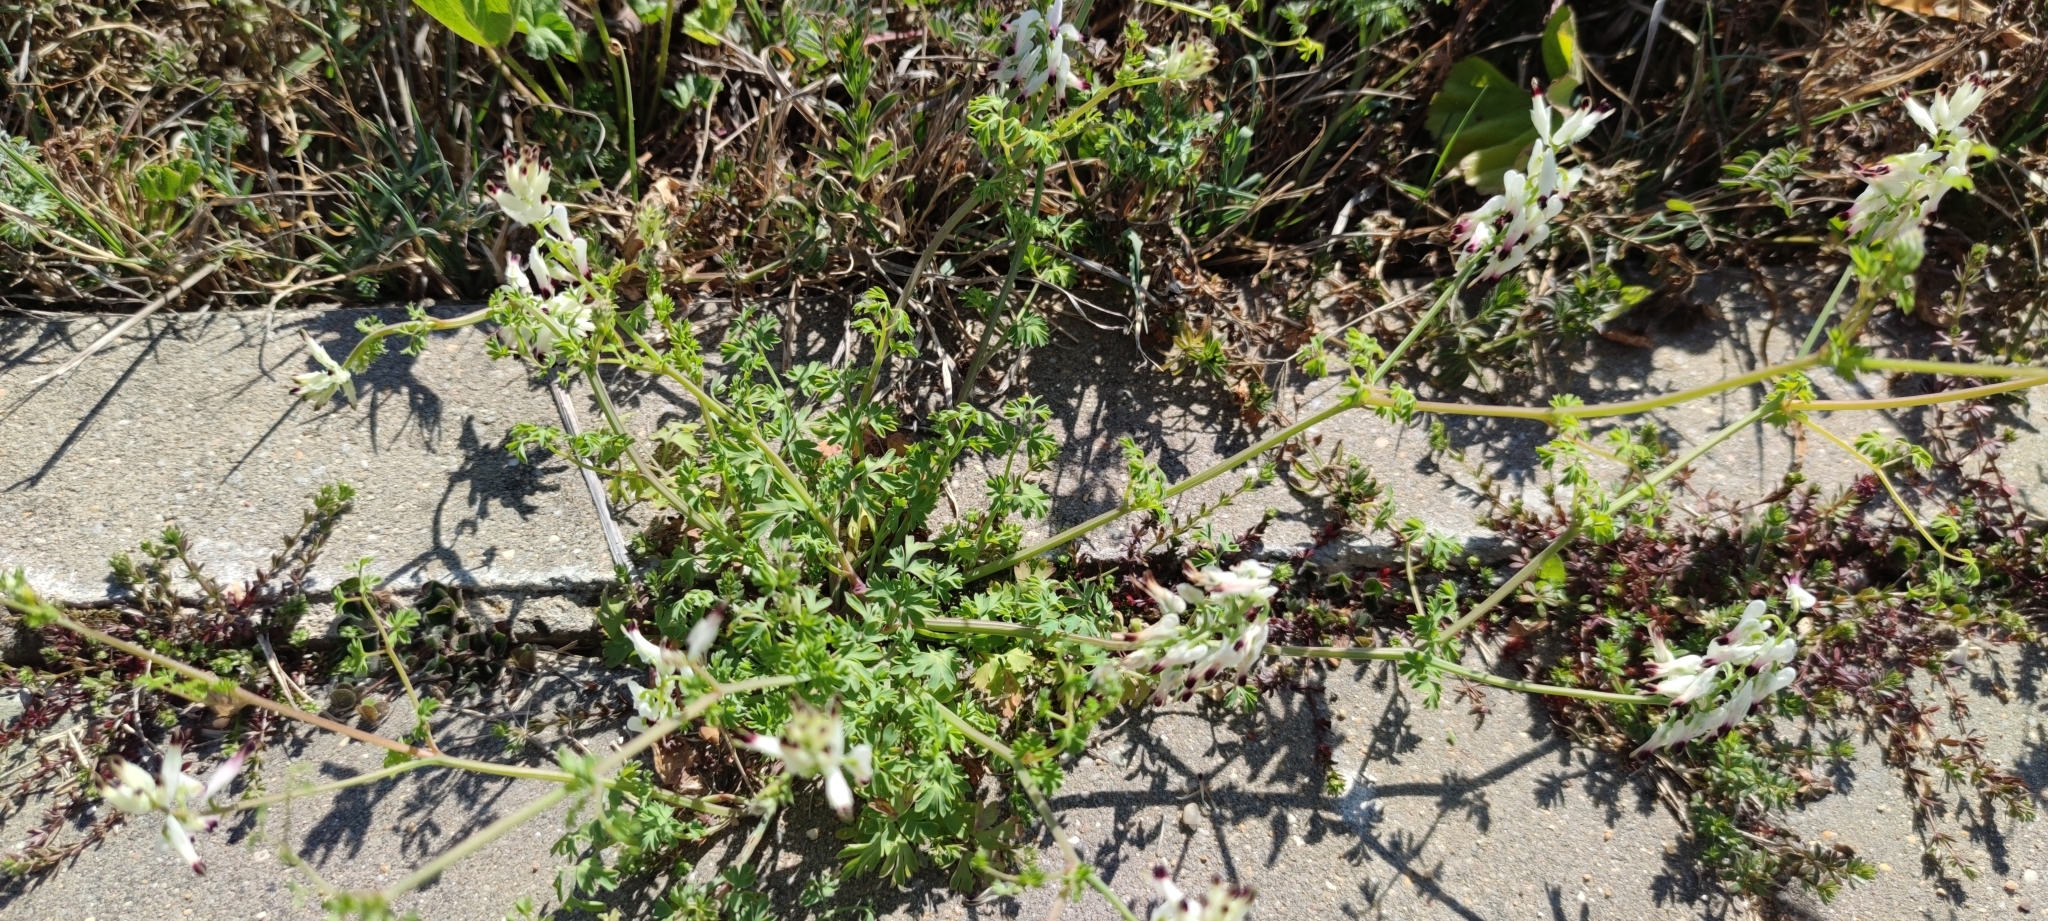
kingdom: Plantae
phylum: Tracheophyta
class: Magnoliopsida
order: Ranunculales
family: Papaveraceae
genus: Fumaria
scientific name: Fumaria capreolata
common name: White ramping-fumitory
